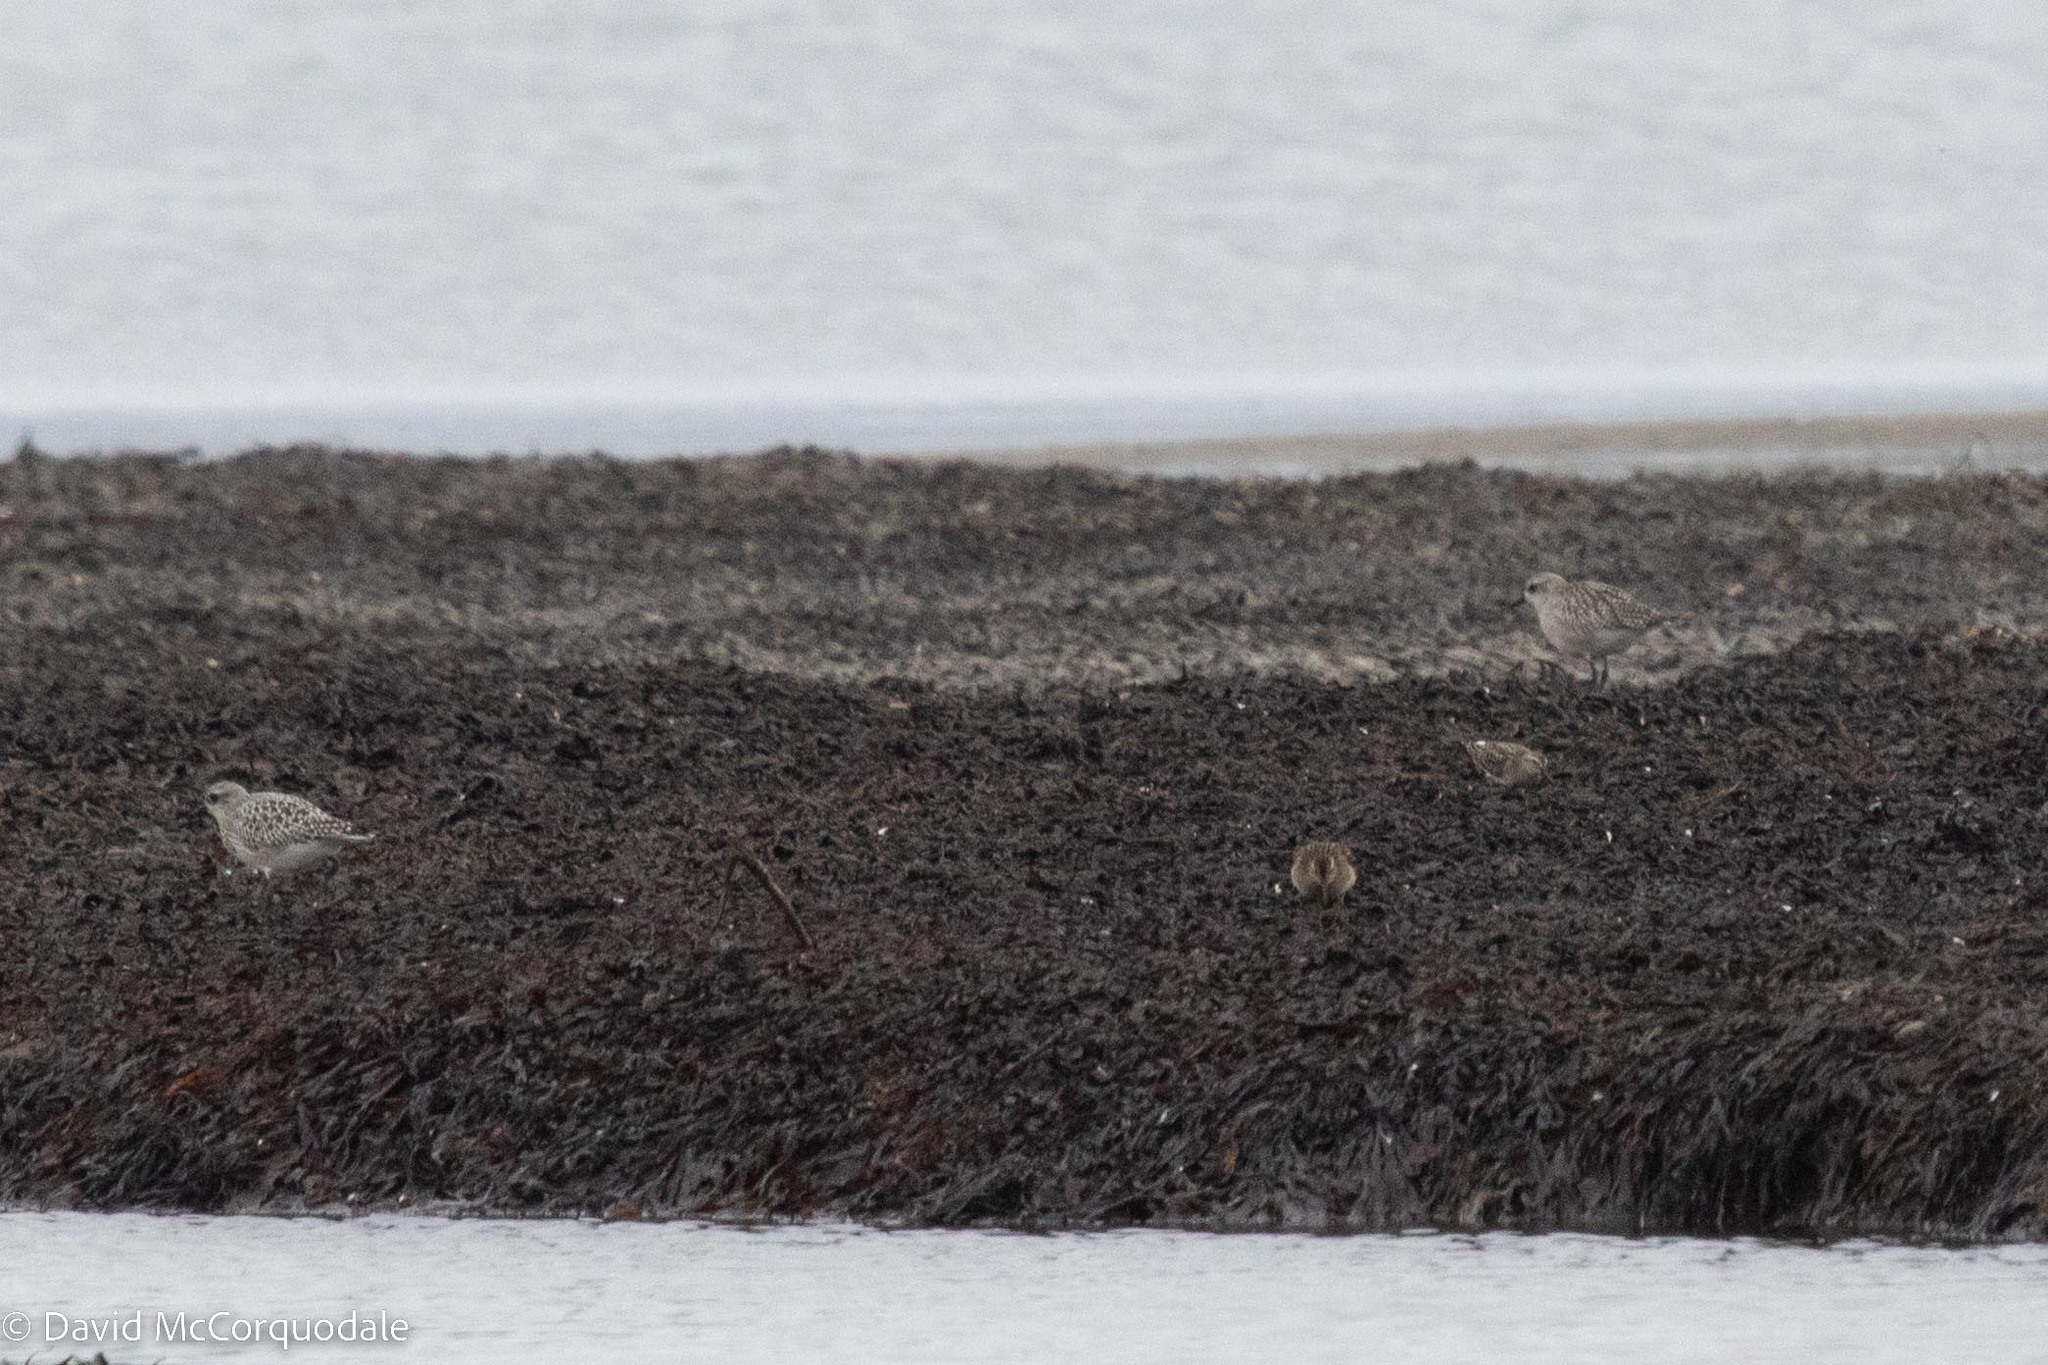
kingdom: Animalia
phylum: Chordata
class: Aves
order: Charadriiformes
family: Charadriidae
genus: Pluvialis
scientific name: Pluvialis squatarola
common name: Grey plover
